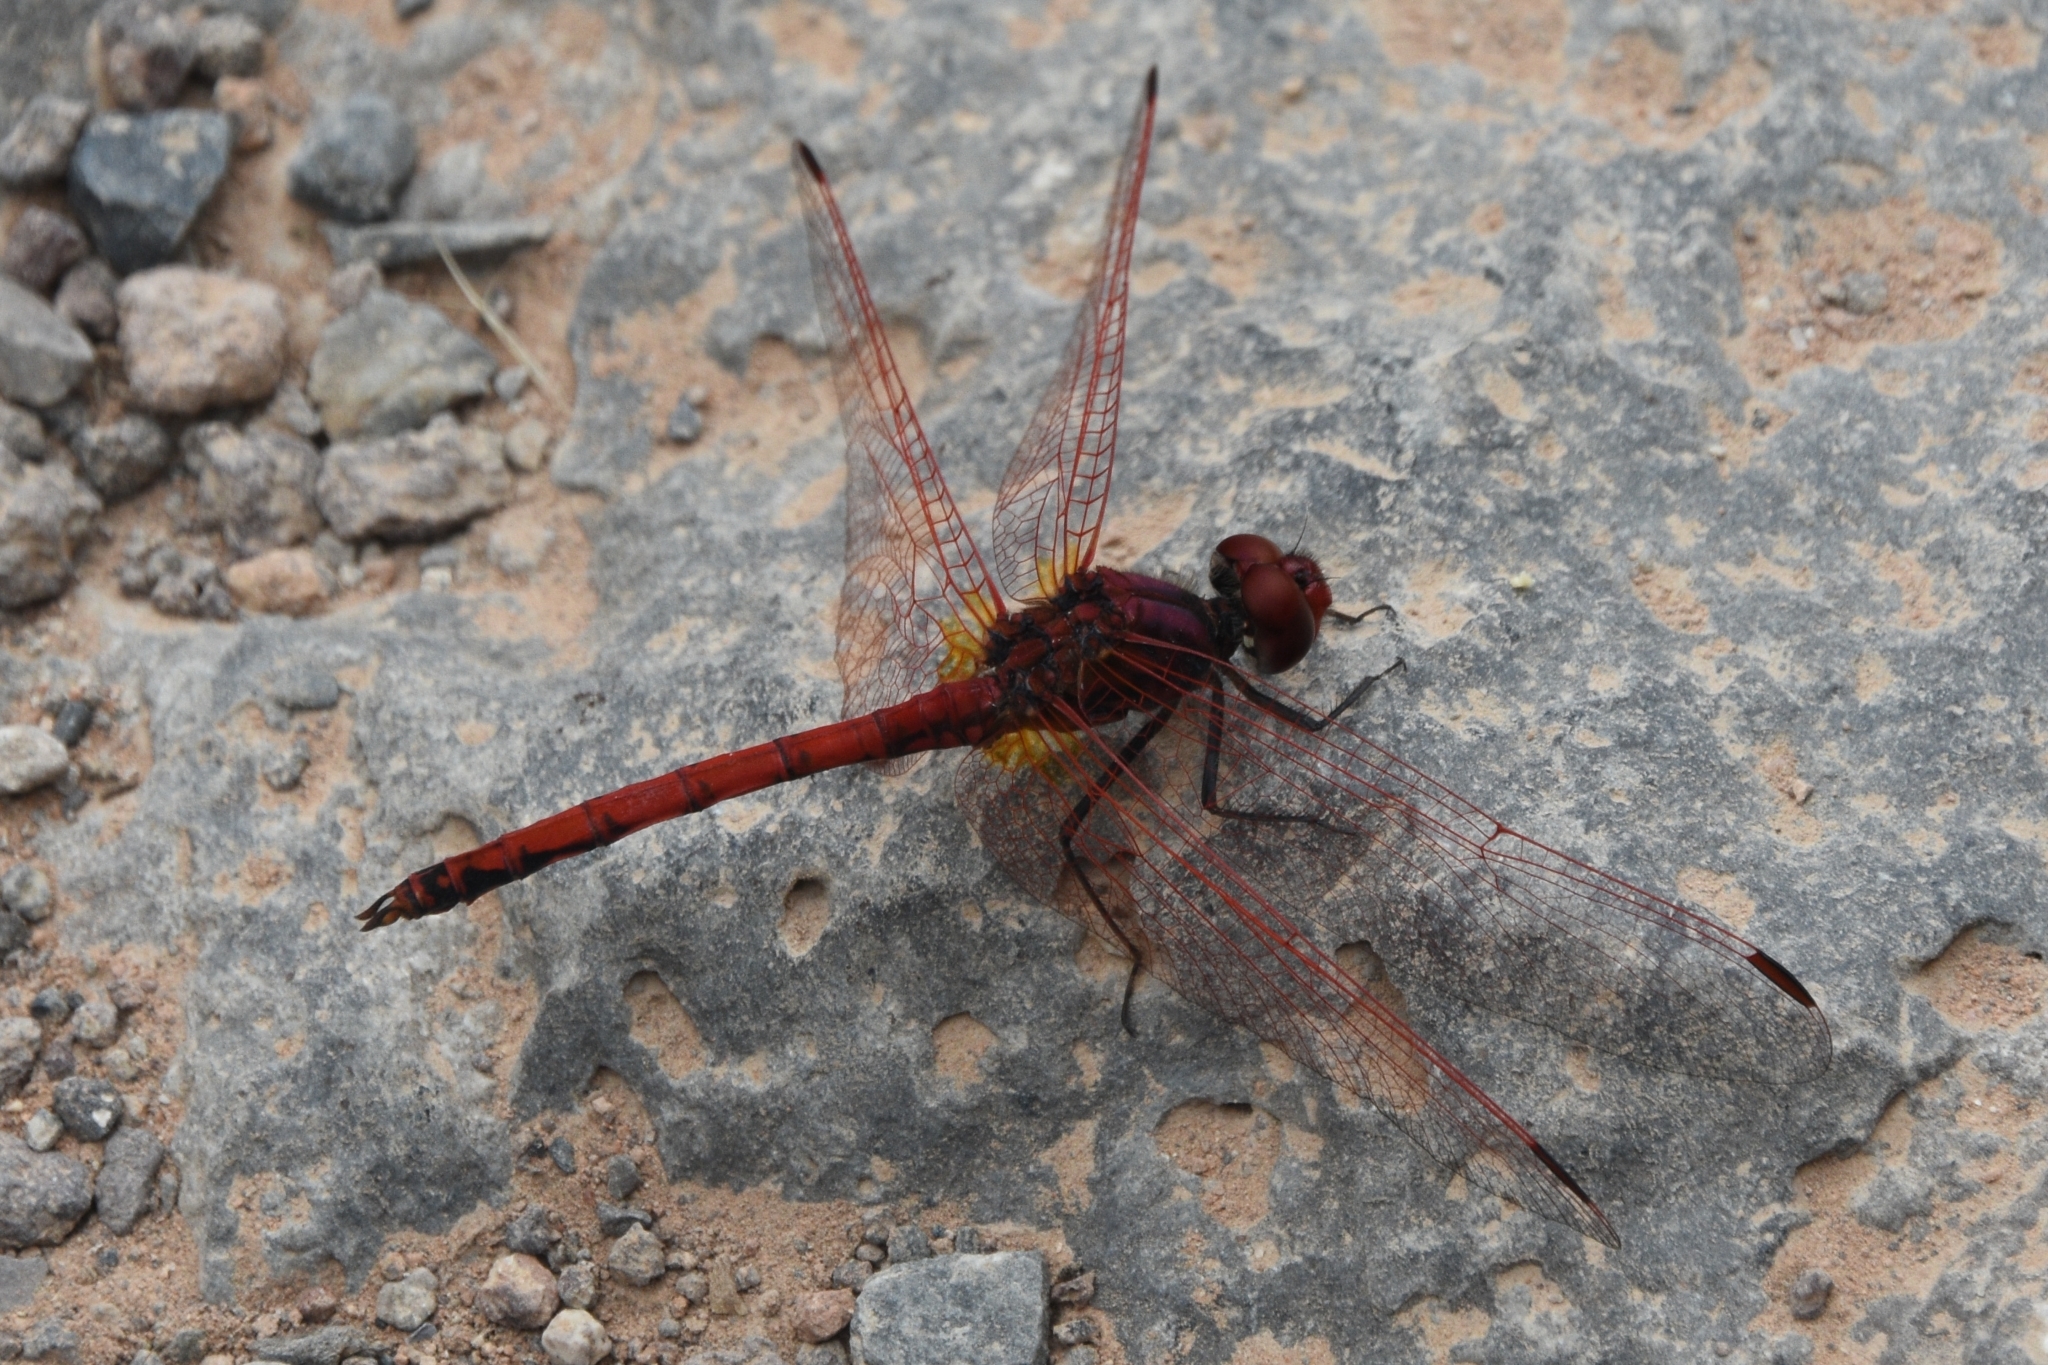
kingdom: Animalia
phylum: Arthropoda
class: Insecta
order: Odonata
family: Libellulidae
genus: Trithemis
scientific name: Trithemis arteriosa
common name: Red-veined dropwing
